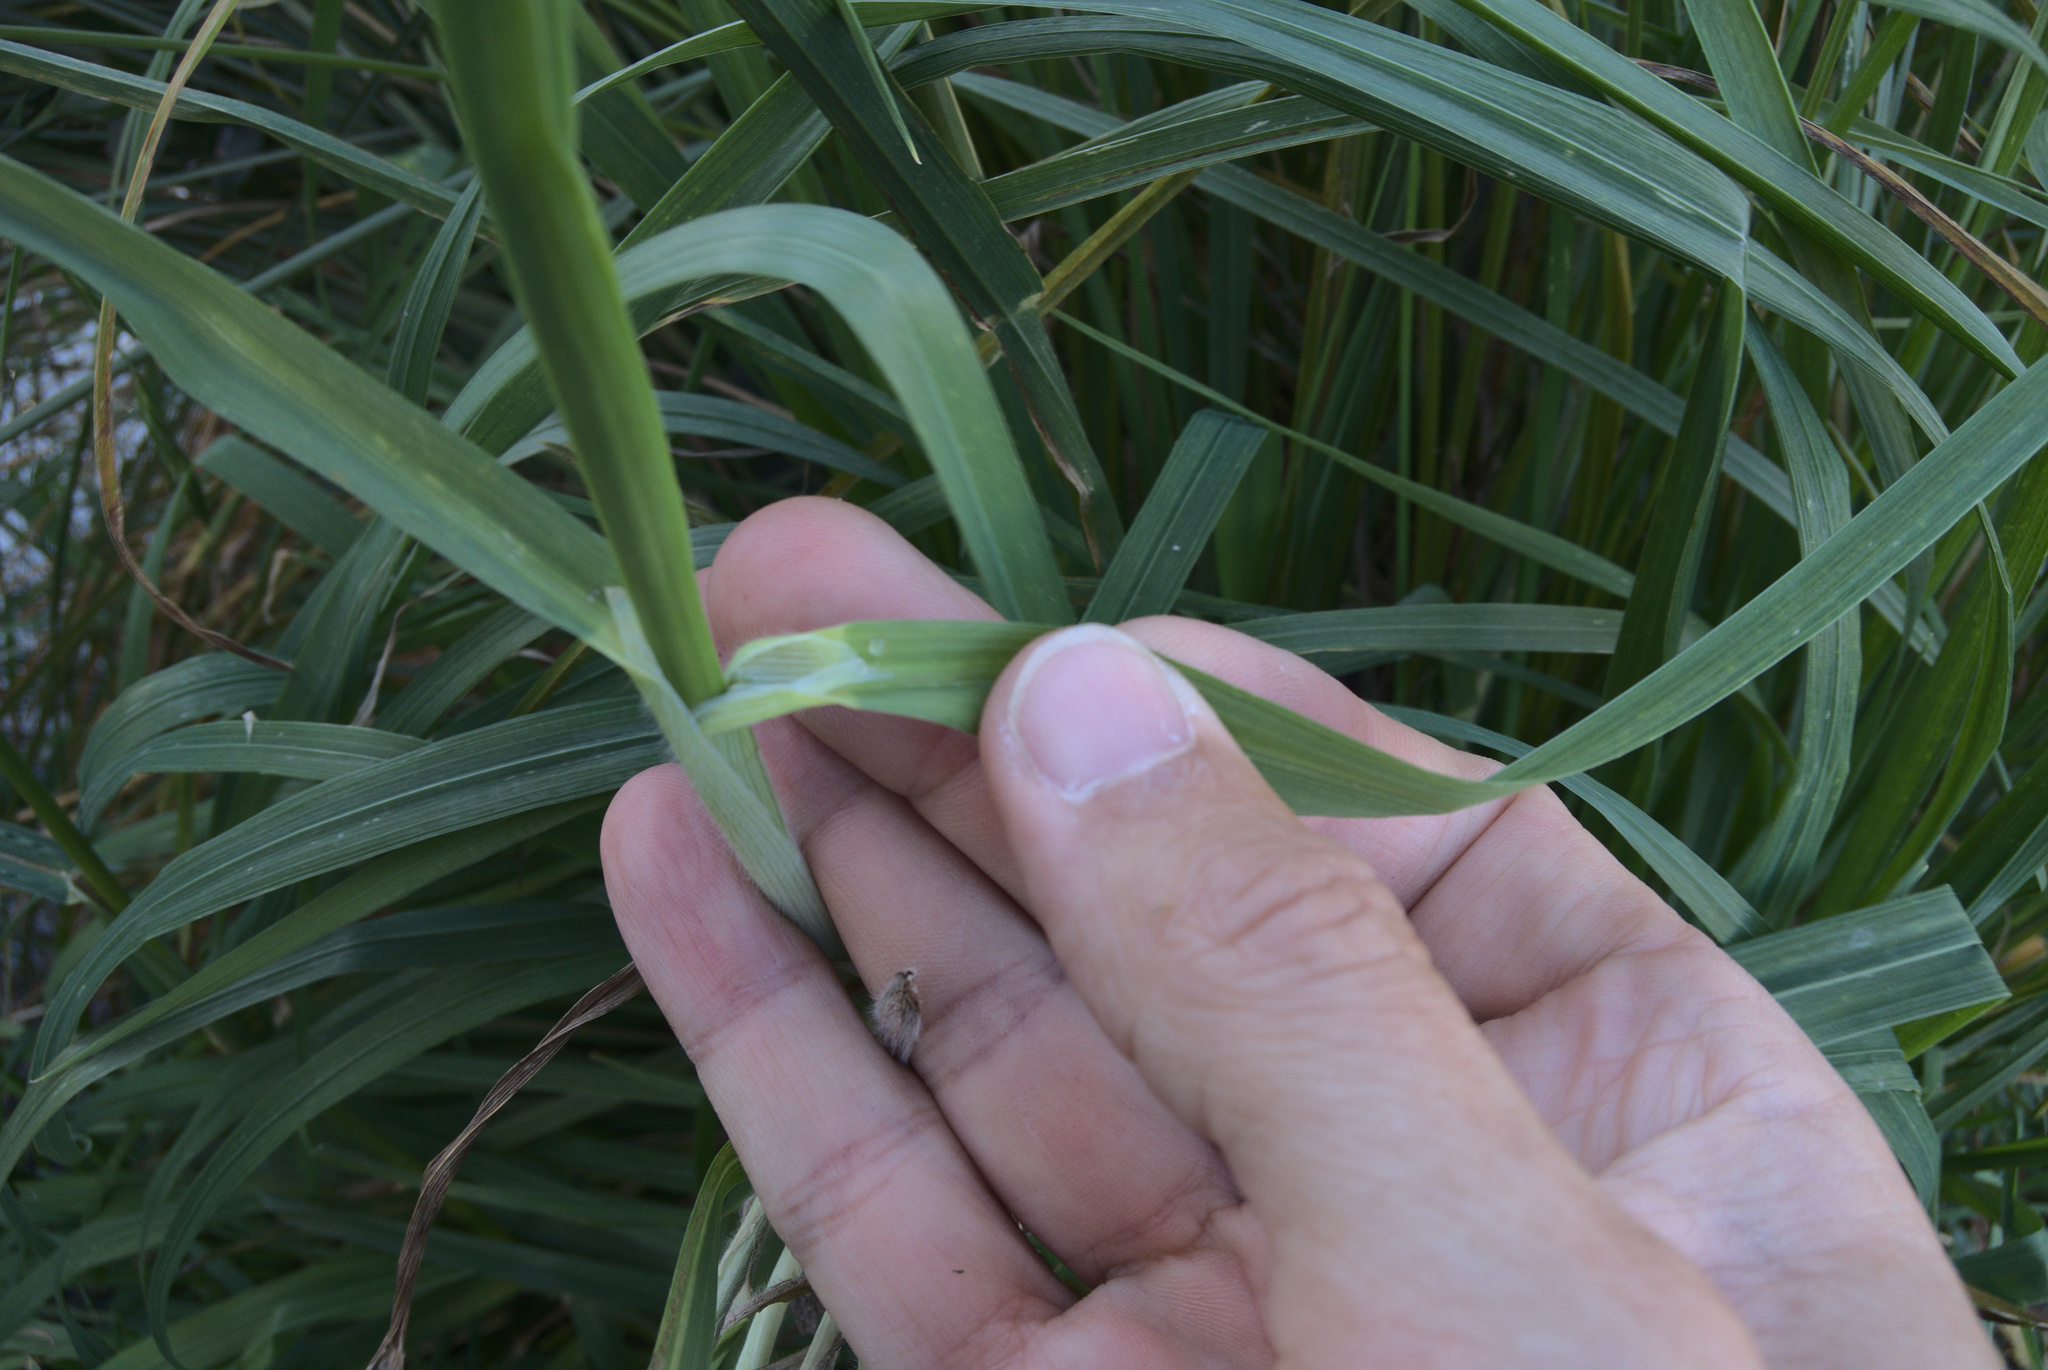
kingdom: Plantae
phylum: Tracheophyta
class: Liliopsida
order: Poales
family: Poaceae
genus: Bromus
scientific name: Bromus catharticus
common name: Rescuegrass
